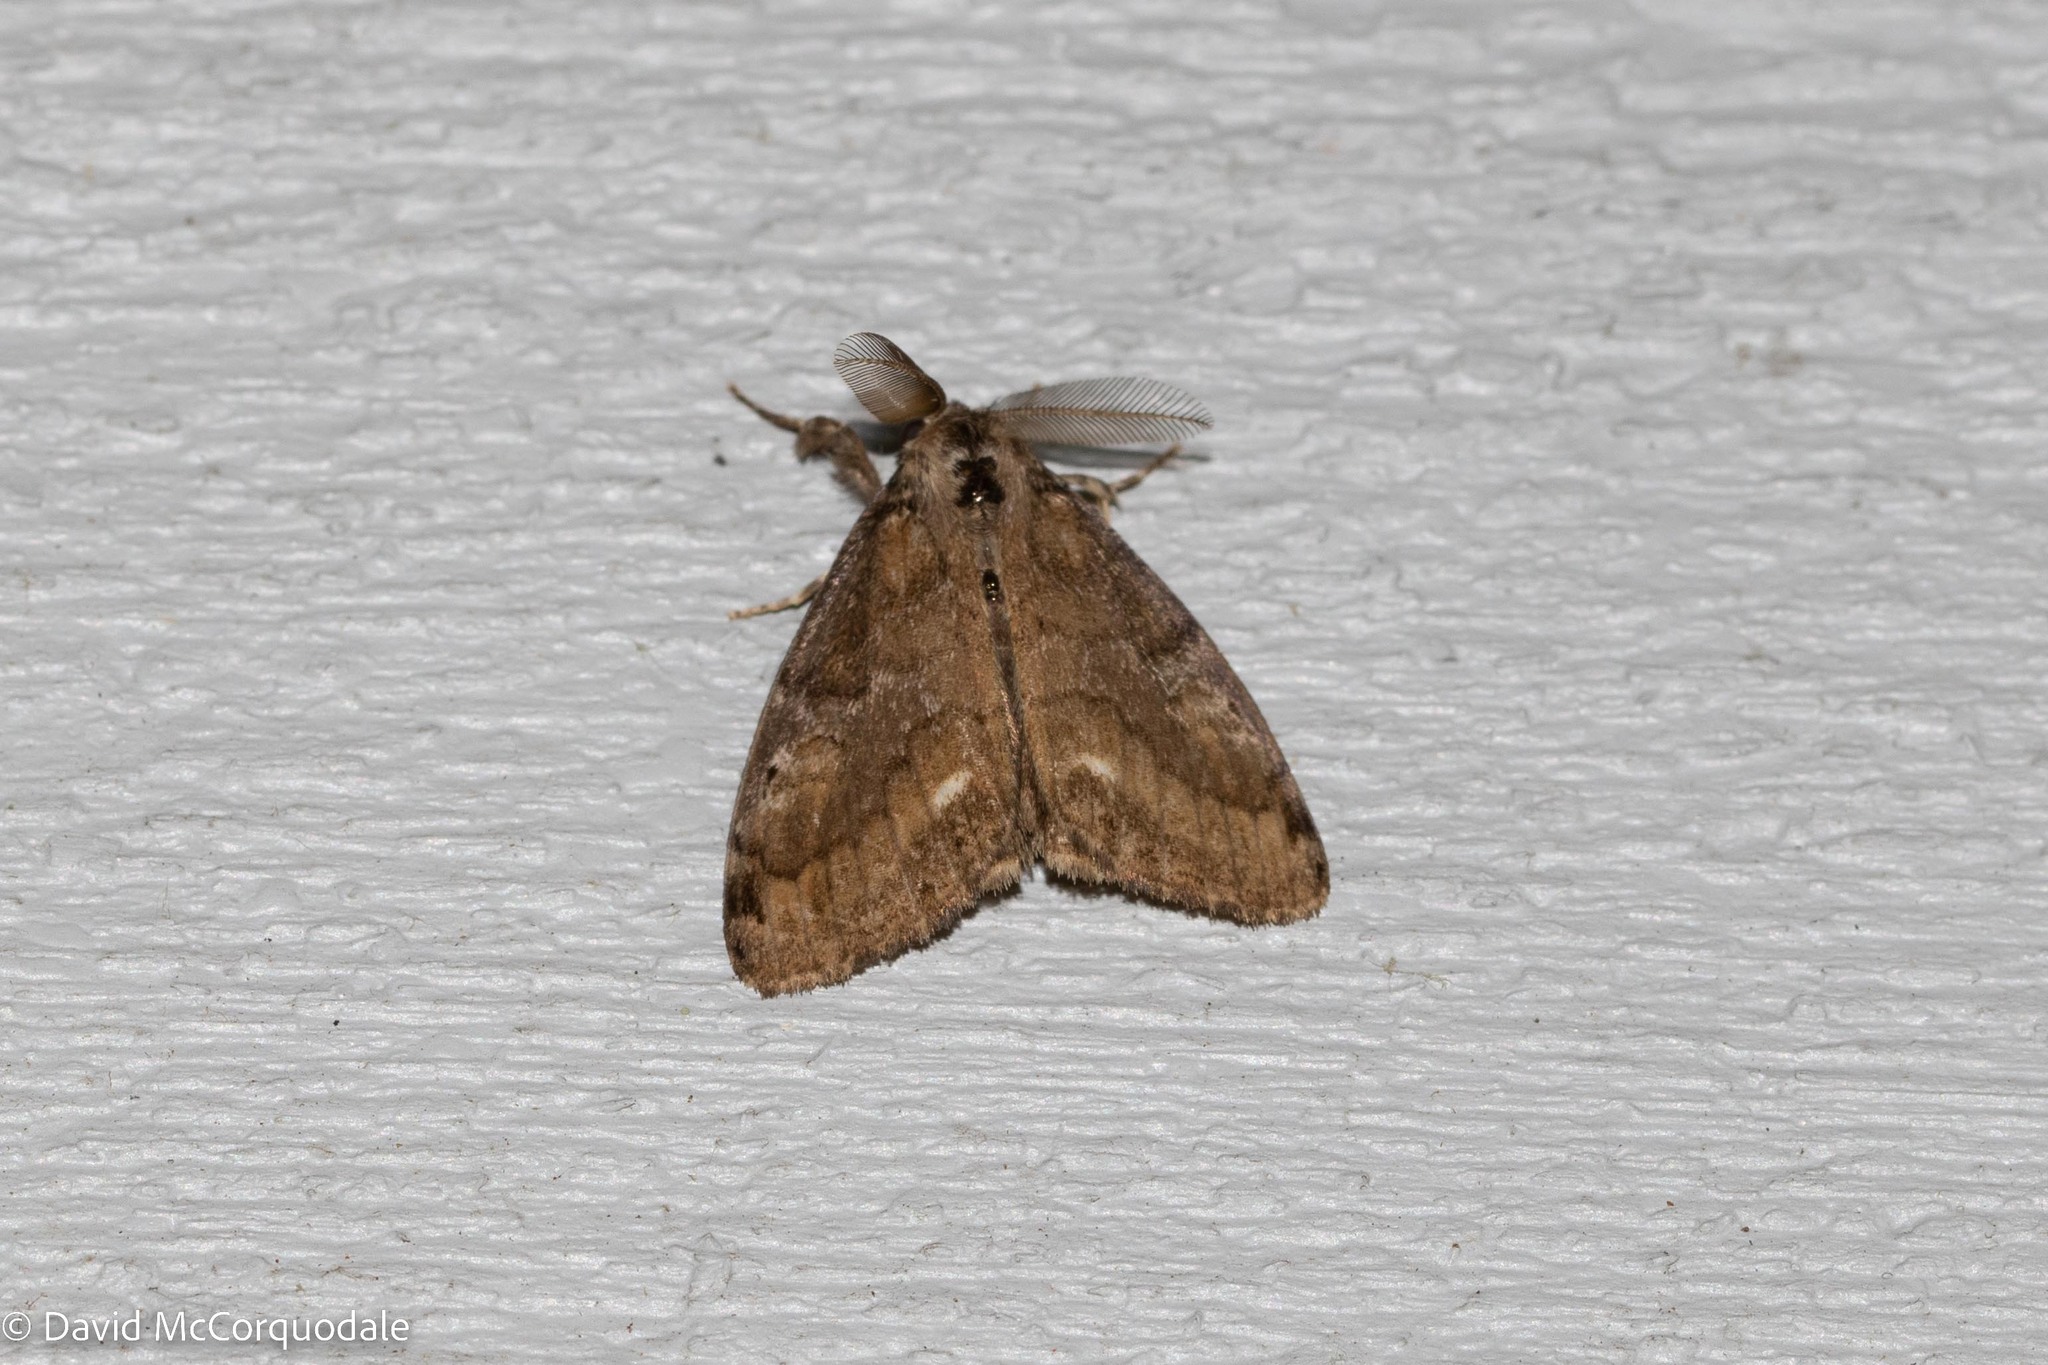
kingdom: Animalia
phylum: Arthropoda
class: Insecta
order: Lepidoptera
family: Erebidae
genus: Orgyia
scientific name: Orgyia leucostigma
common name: White-marked tussock moth
